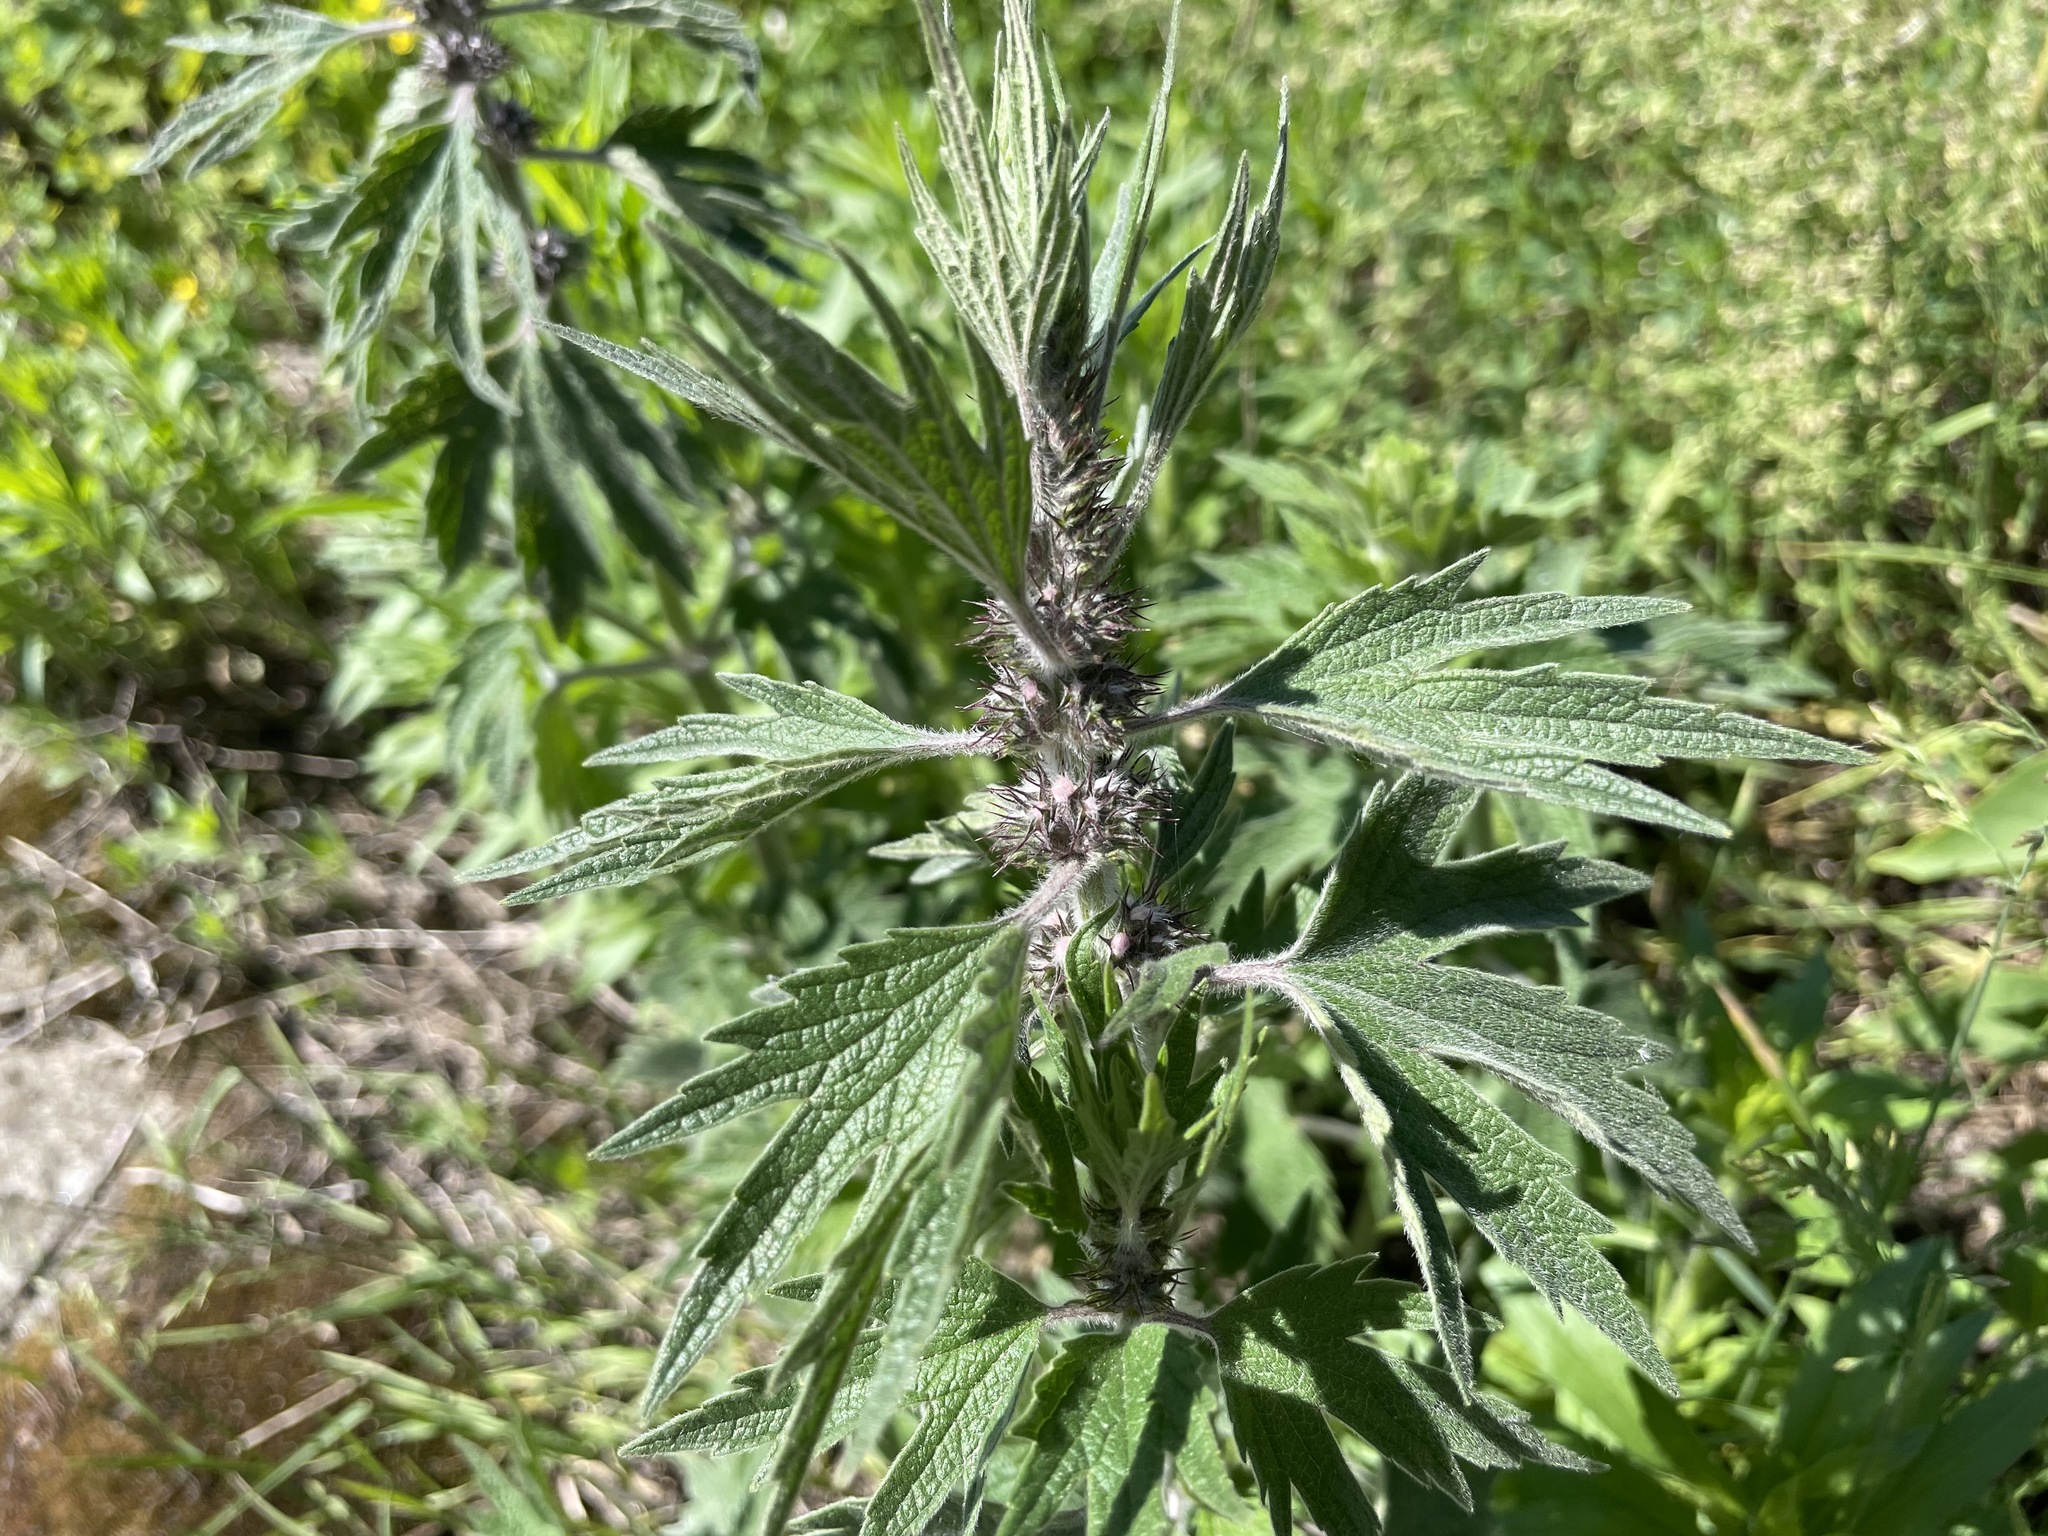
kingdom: Plantae
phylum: Tracheophyta
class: Magnoliopsida
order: Lamiales
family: Lamiaceae
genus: Leonurus
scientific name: Leonurus quinquelobatus
